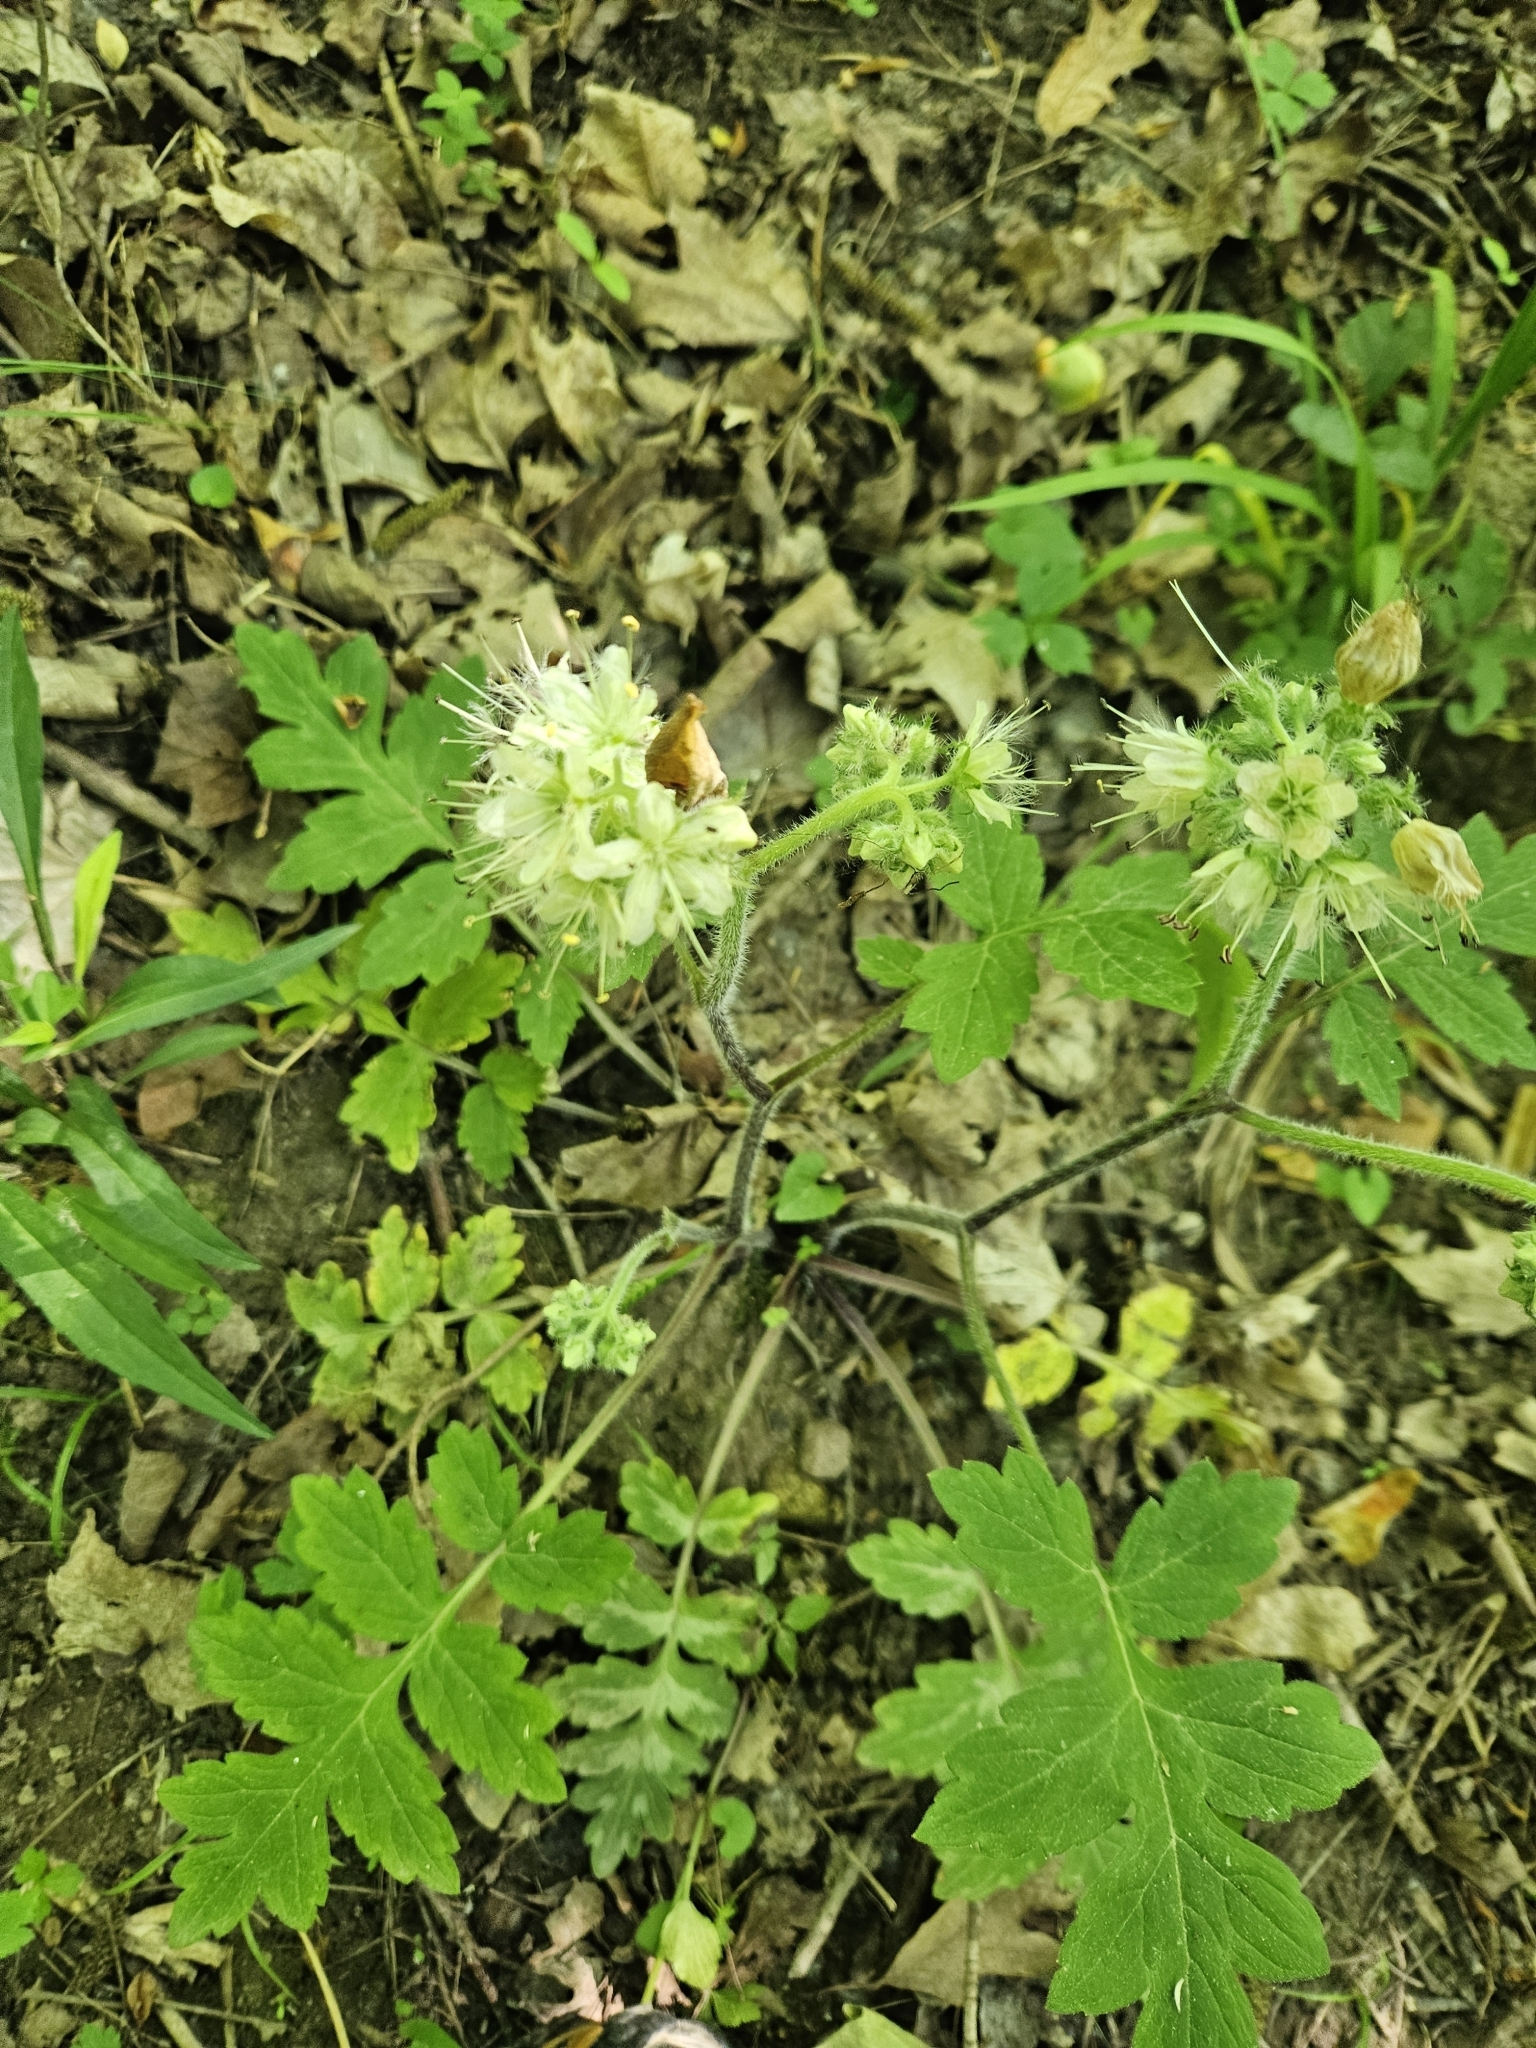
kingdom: Plantae
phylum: Tracheophyta
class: Magnoliopsida
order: Boraginales
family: Hydrophyllaceae
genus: Hydrophyllum
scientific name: Hydrophyllum macrophyllum
